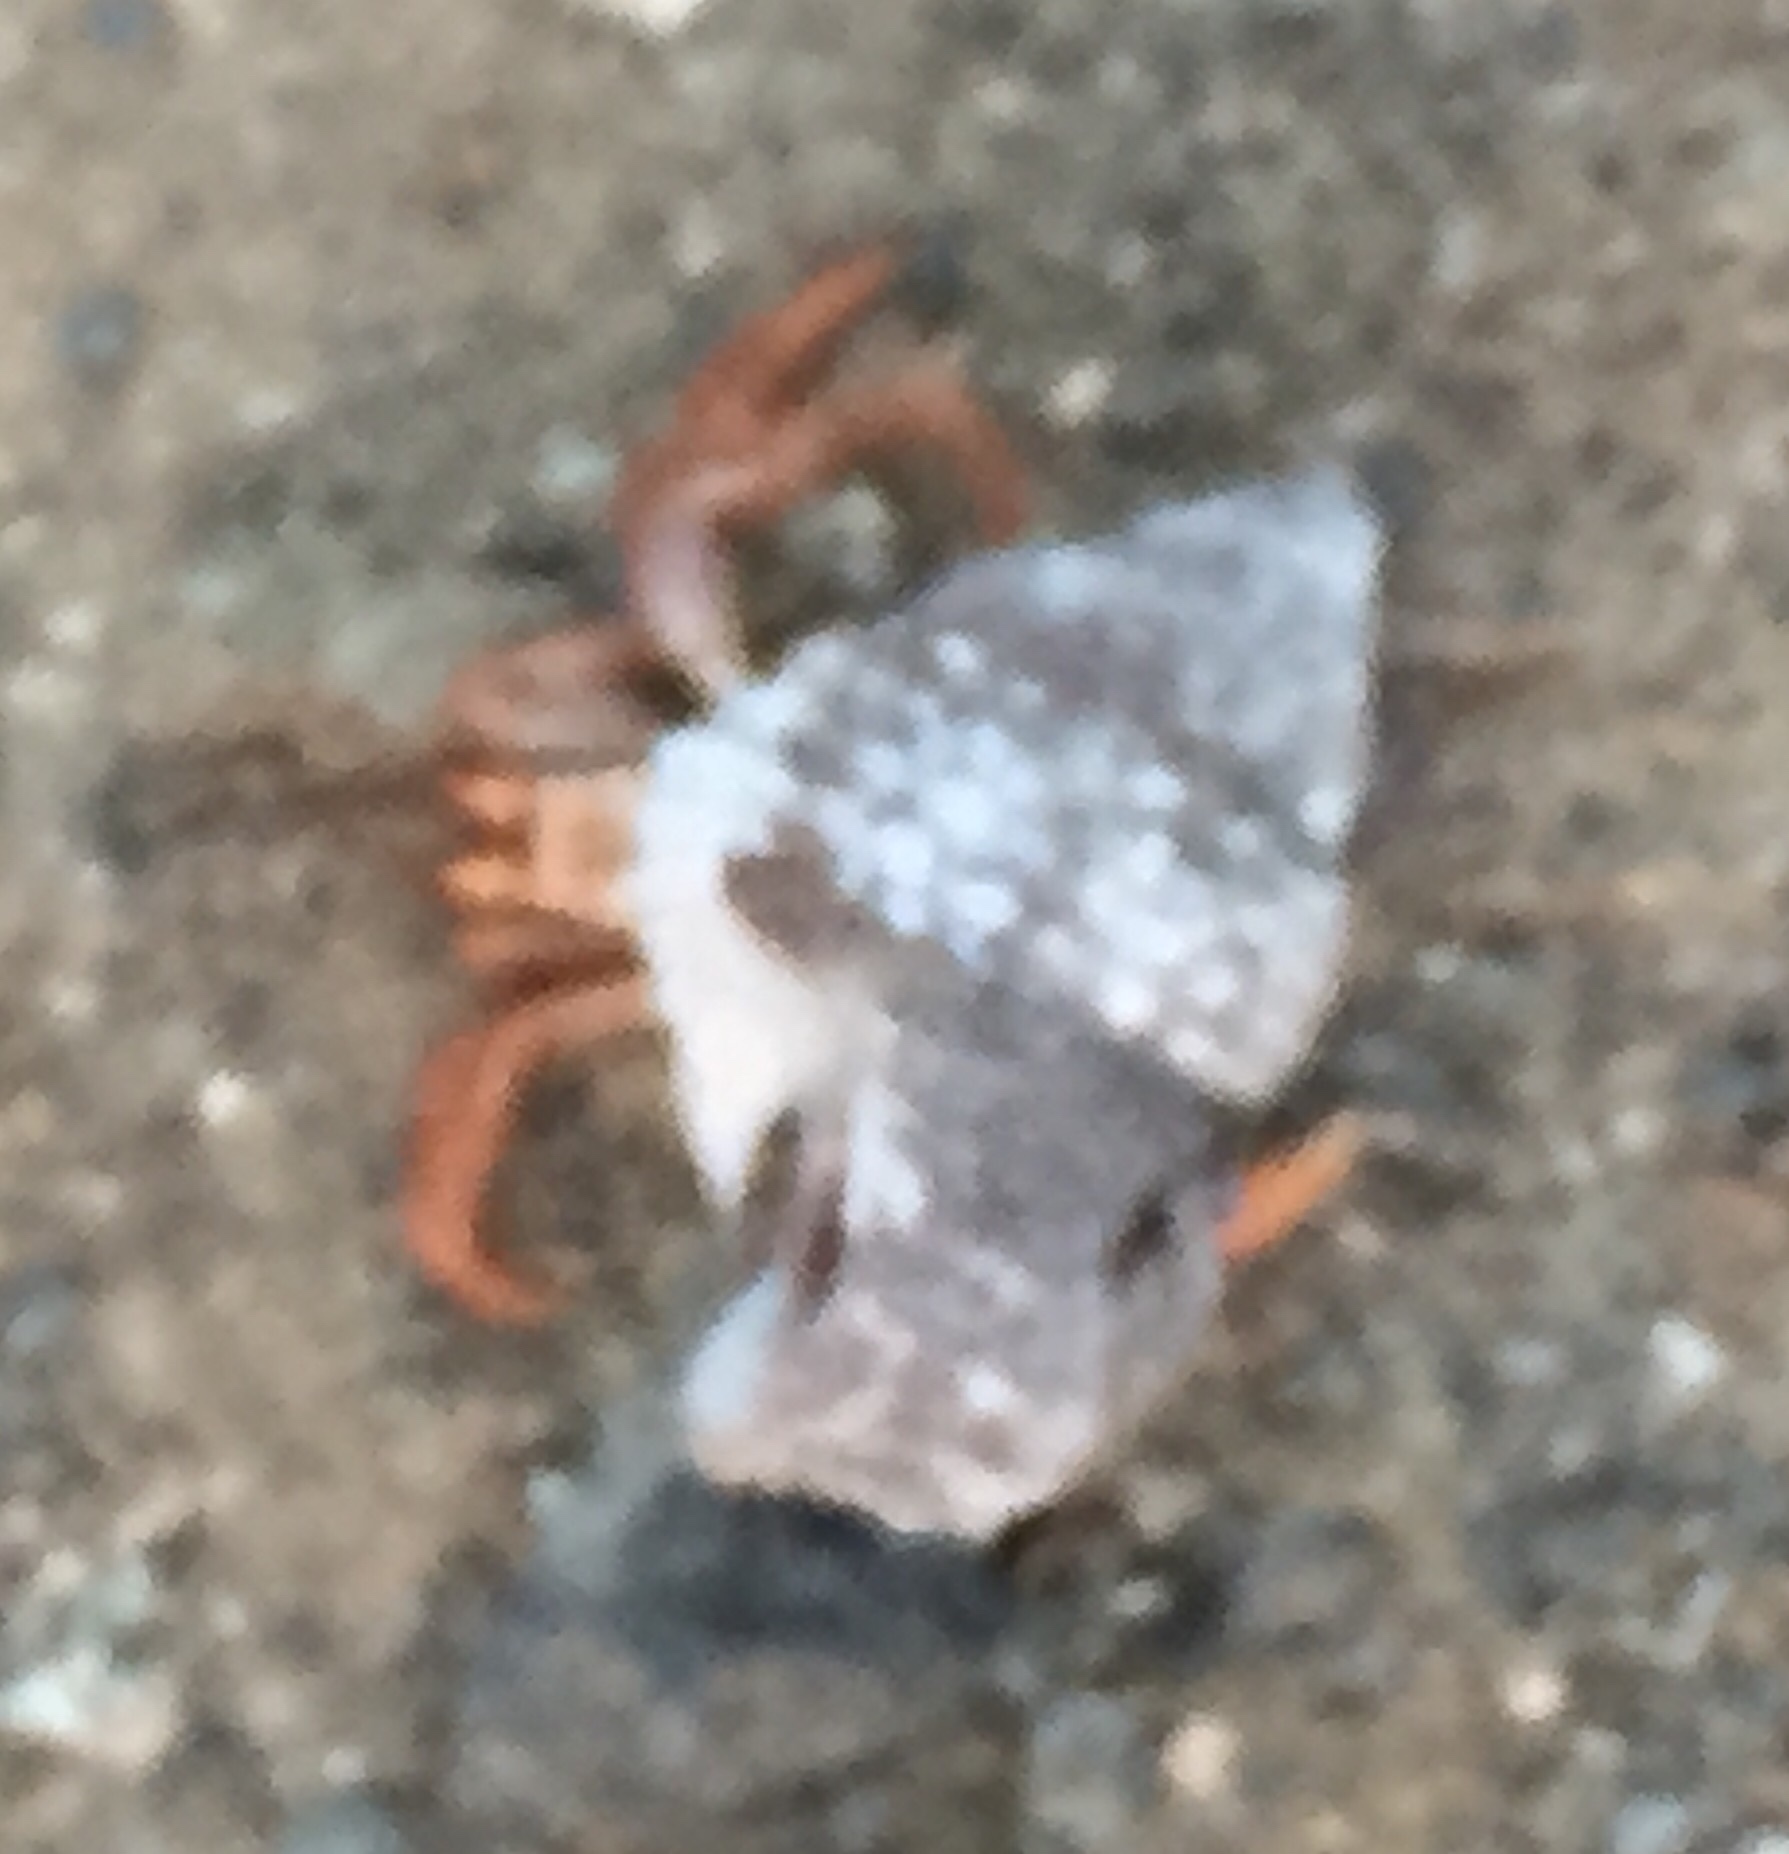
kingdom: Animalia
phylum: Arthropoda
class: Malacostraca
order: Decapoda
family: Coenobitidae
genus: Coenobita
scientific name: Coenobita clypeatus
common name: Caribbean hermit crab
